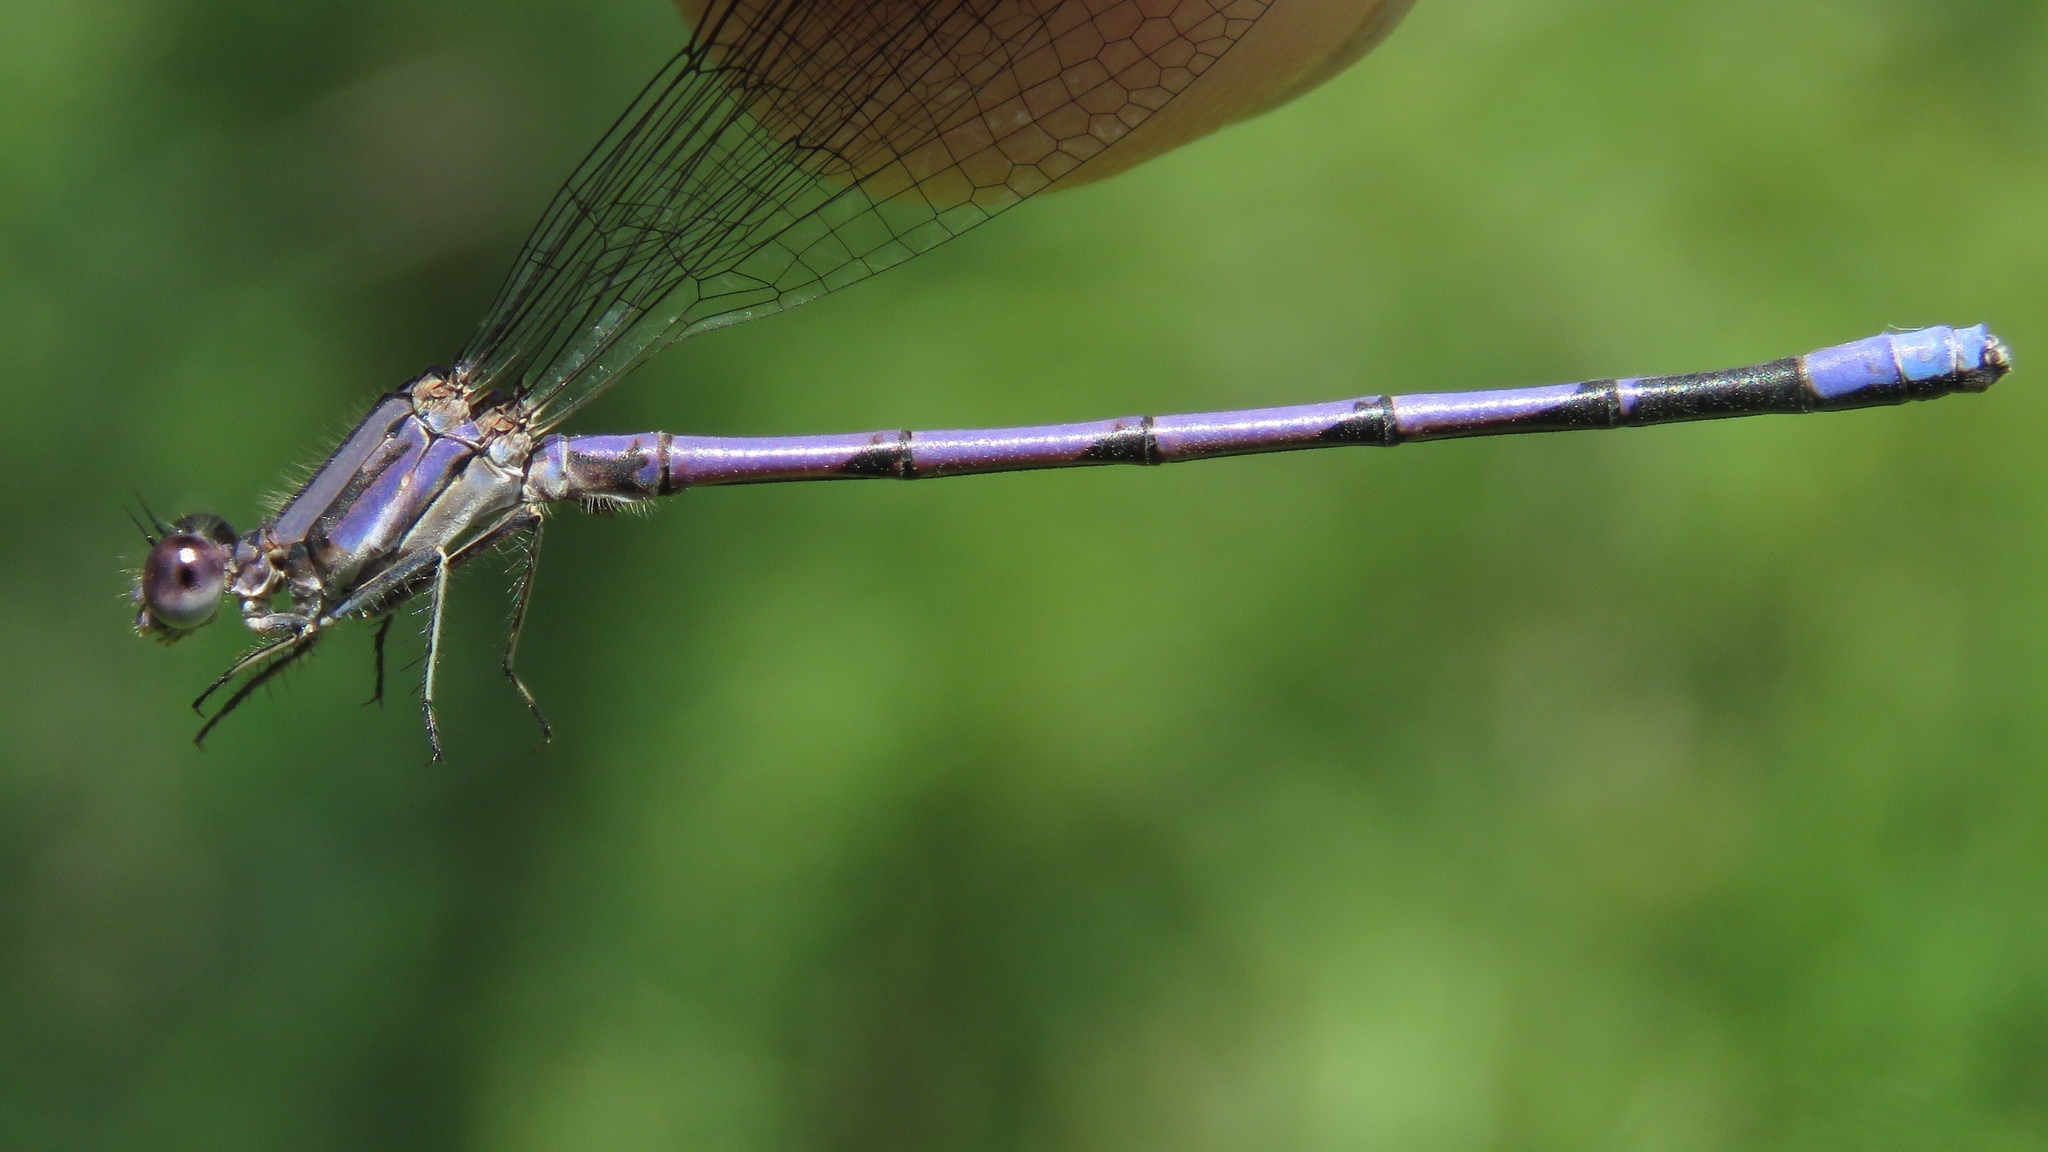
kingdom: Animalia
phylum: Arthropoda
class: Insecta
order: Odonata
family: Coenagrionidae
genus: Argia
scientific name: Argia fumipennis
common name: Variable dancer
